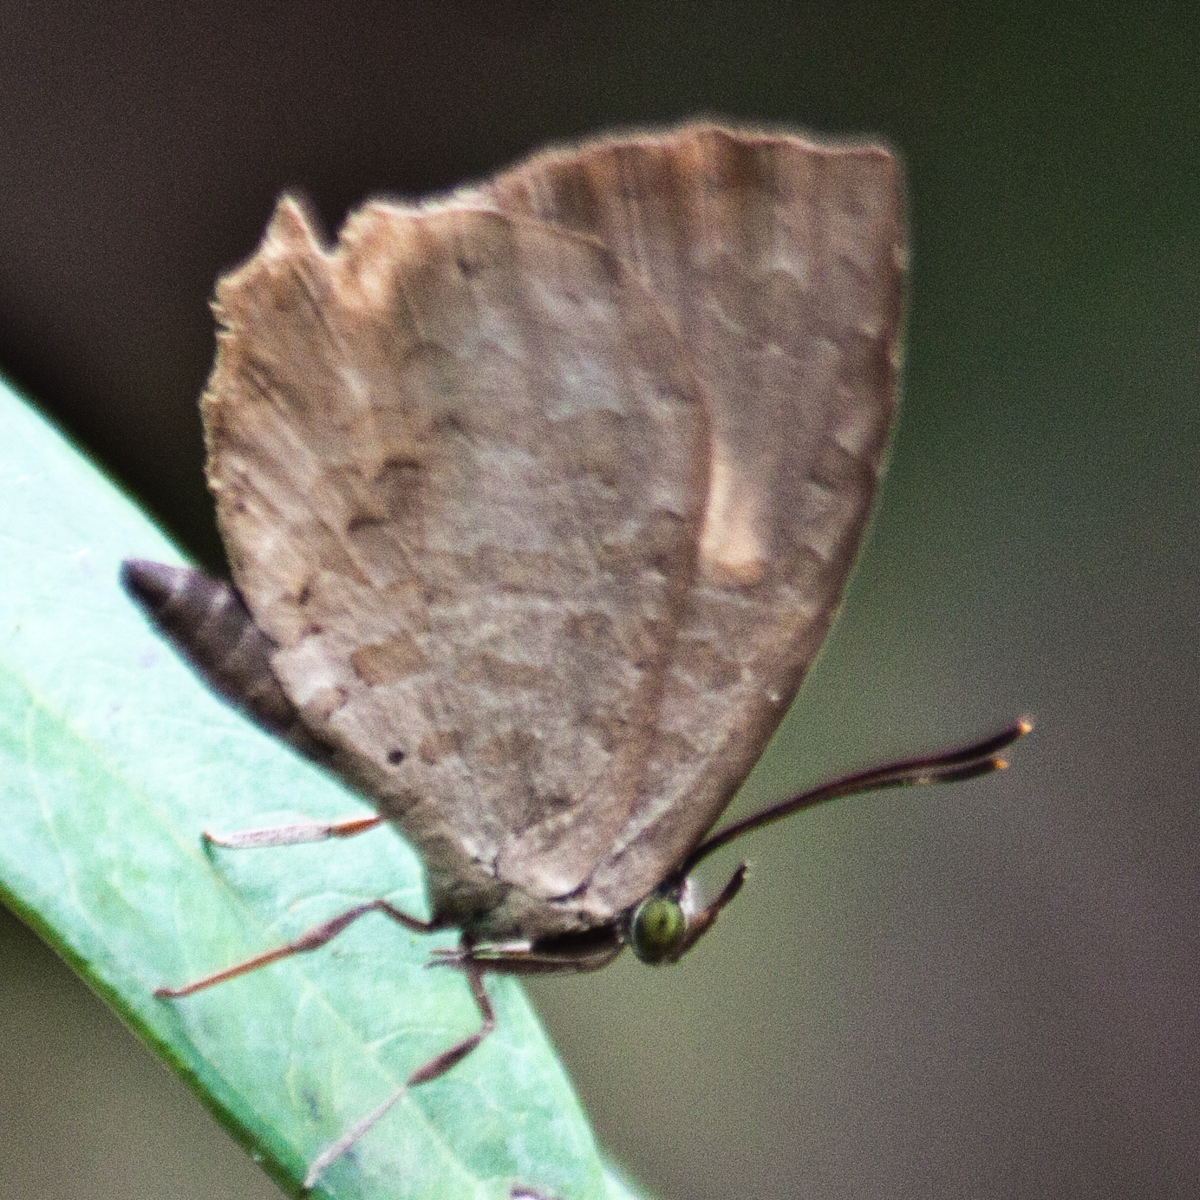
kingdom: Animalia
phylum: Arthropoda
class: Insecta
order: Lepidoptera
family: Lycaenidae
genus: Miletus
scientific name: Miletus chinensis
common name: Common brownie
